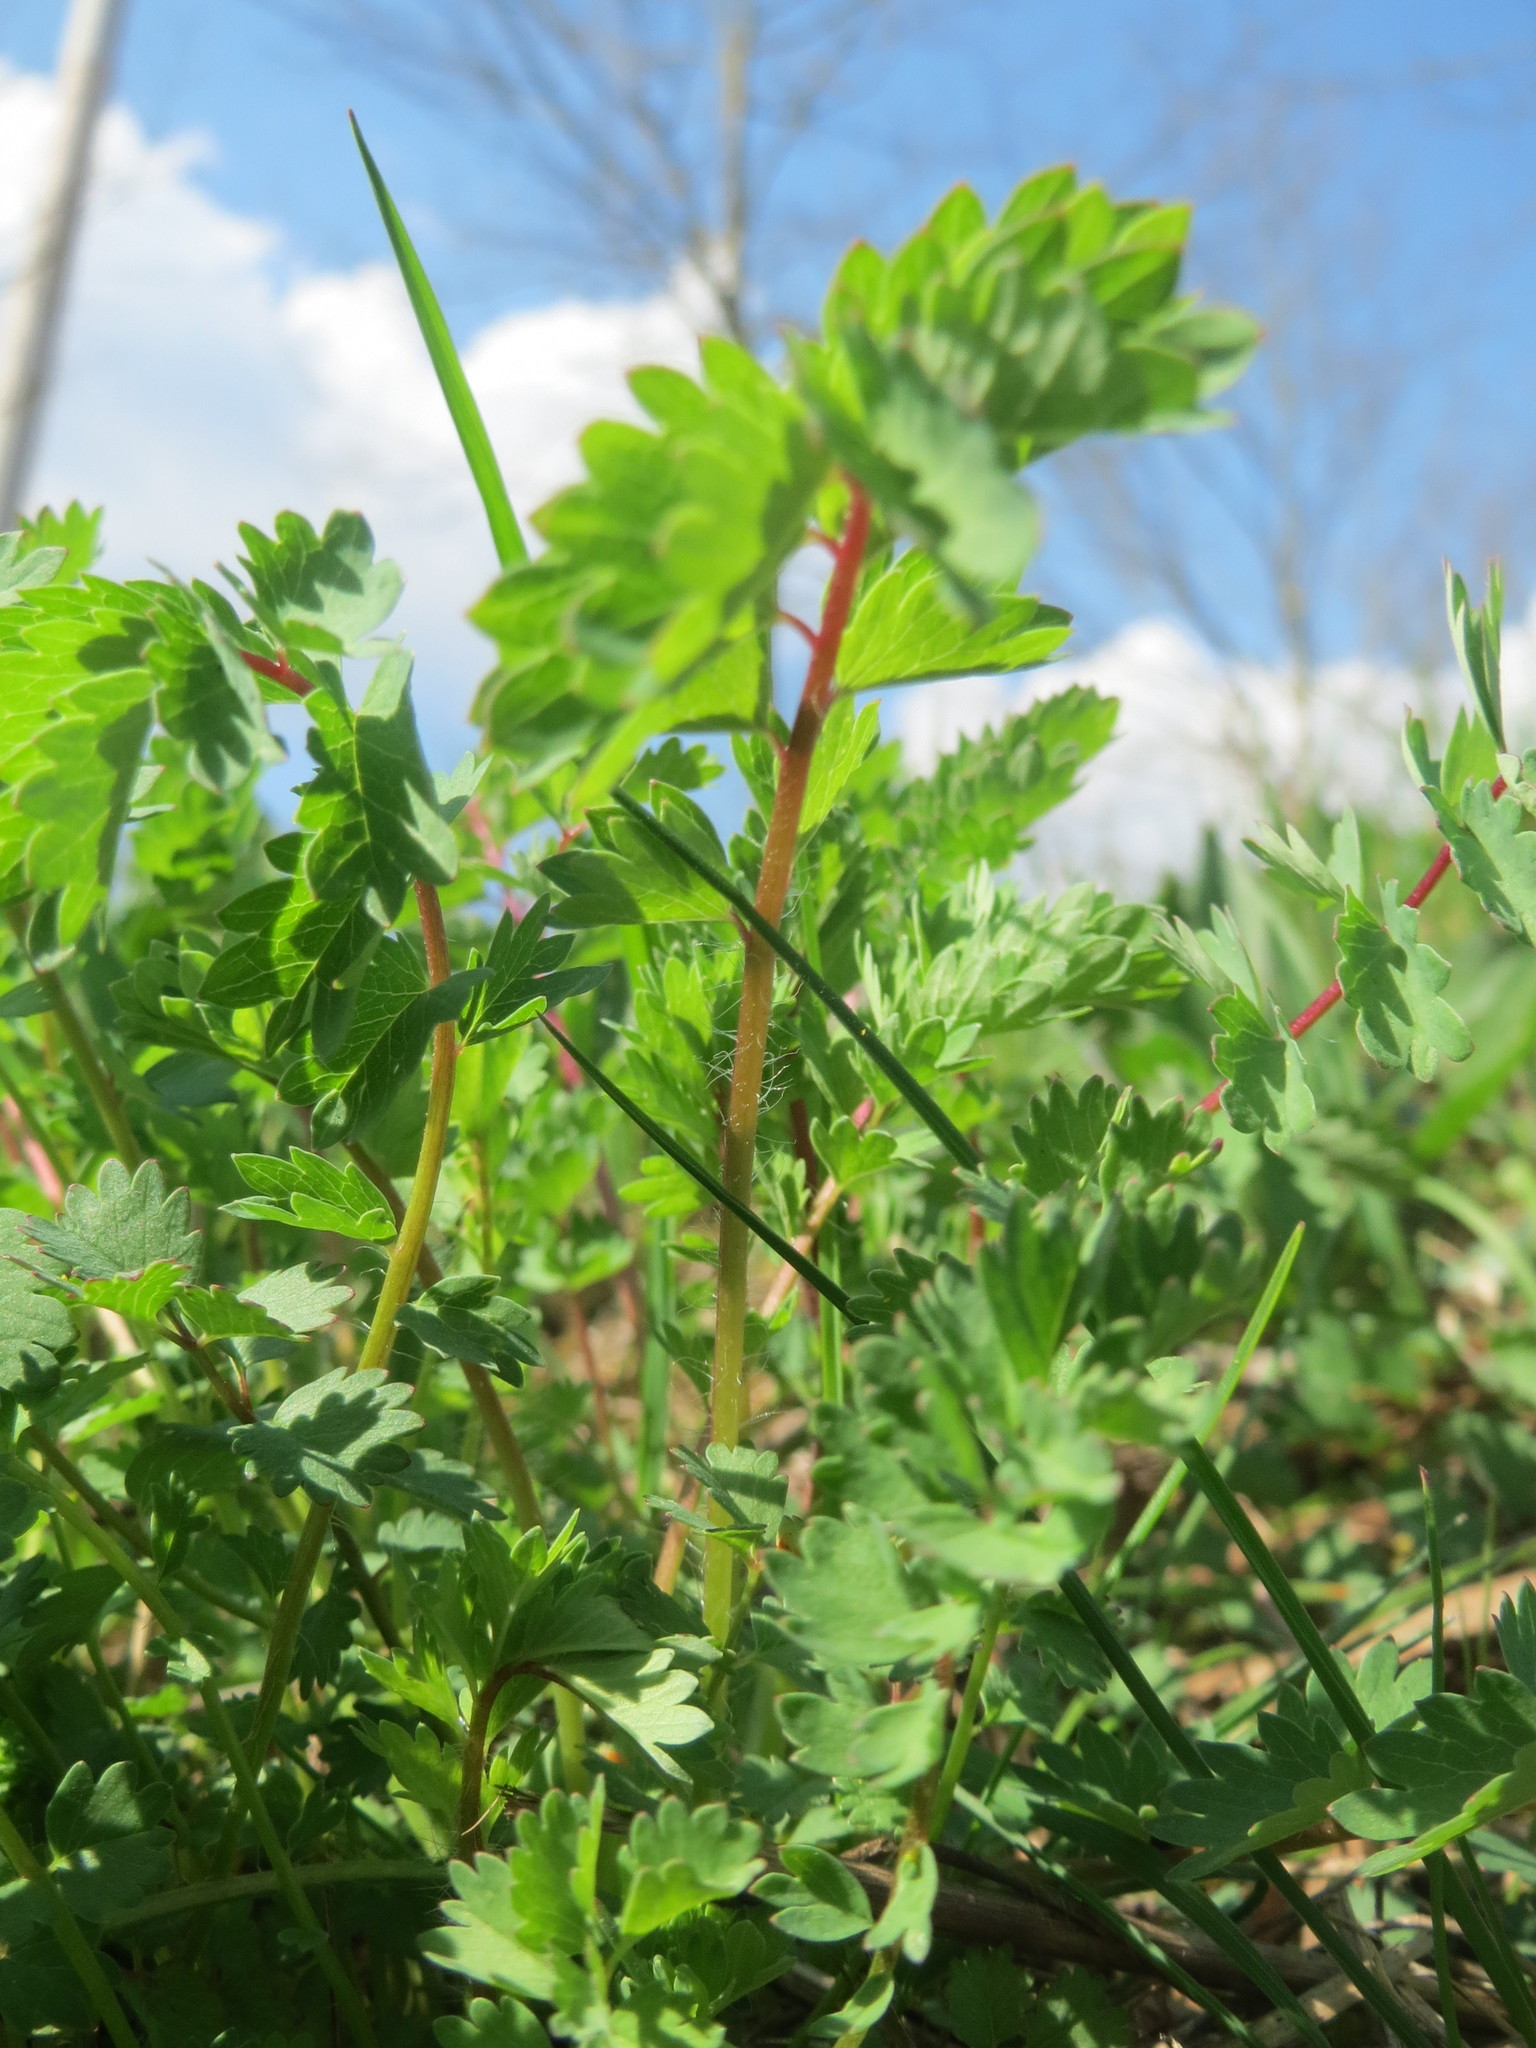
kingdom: Plantae
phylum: Tracheophyta
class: Magnoliopsida
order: Rosales
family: Rosaceae
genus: Poterium
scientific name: Poterium sanguisorba
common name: Salad burnet
